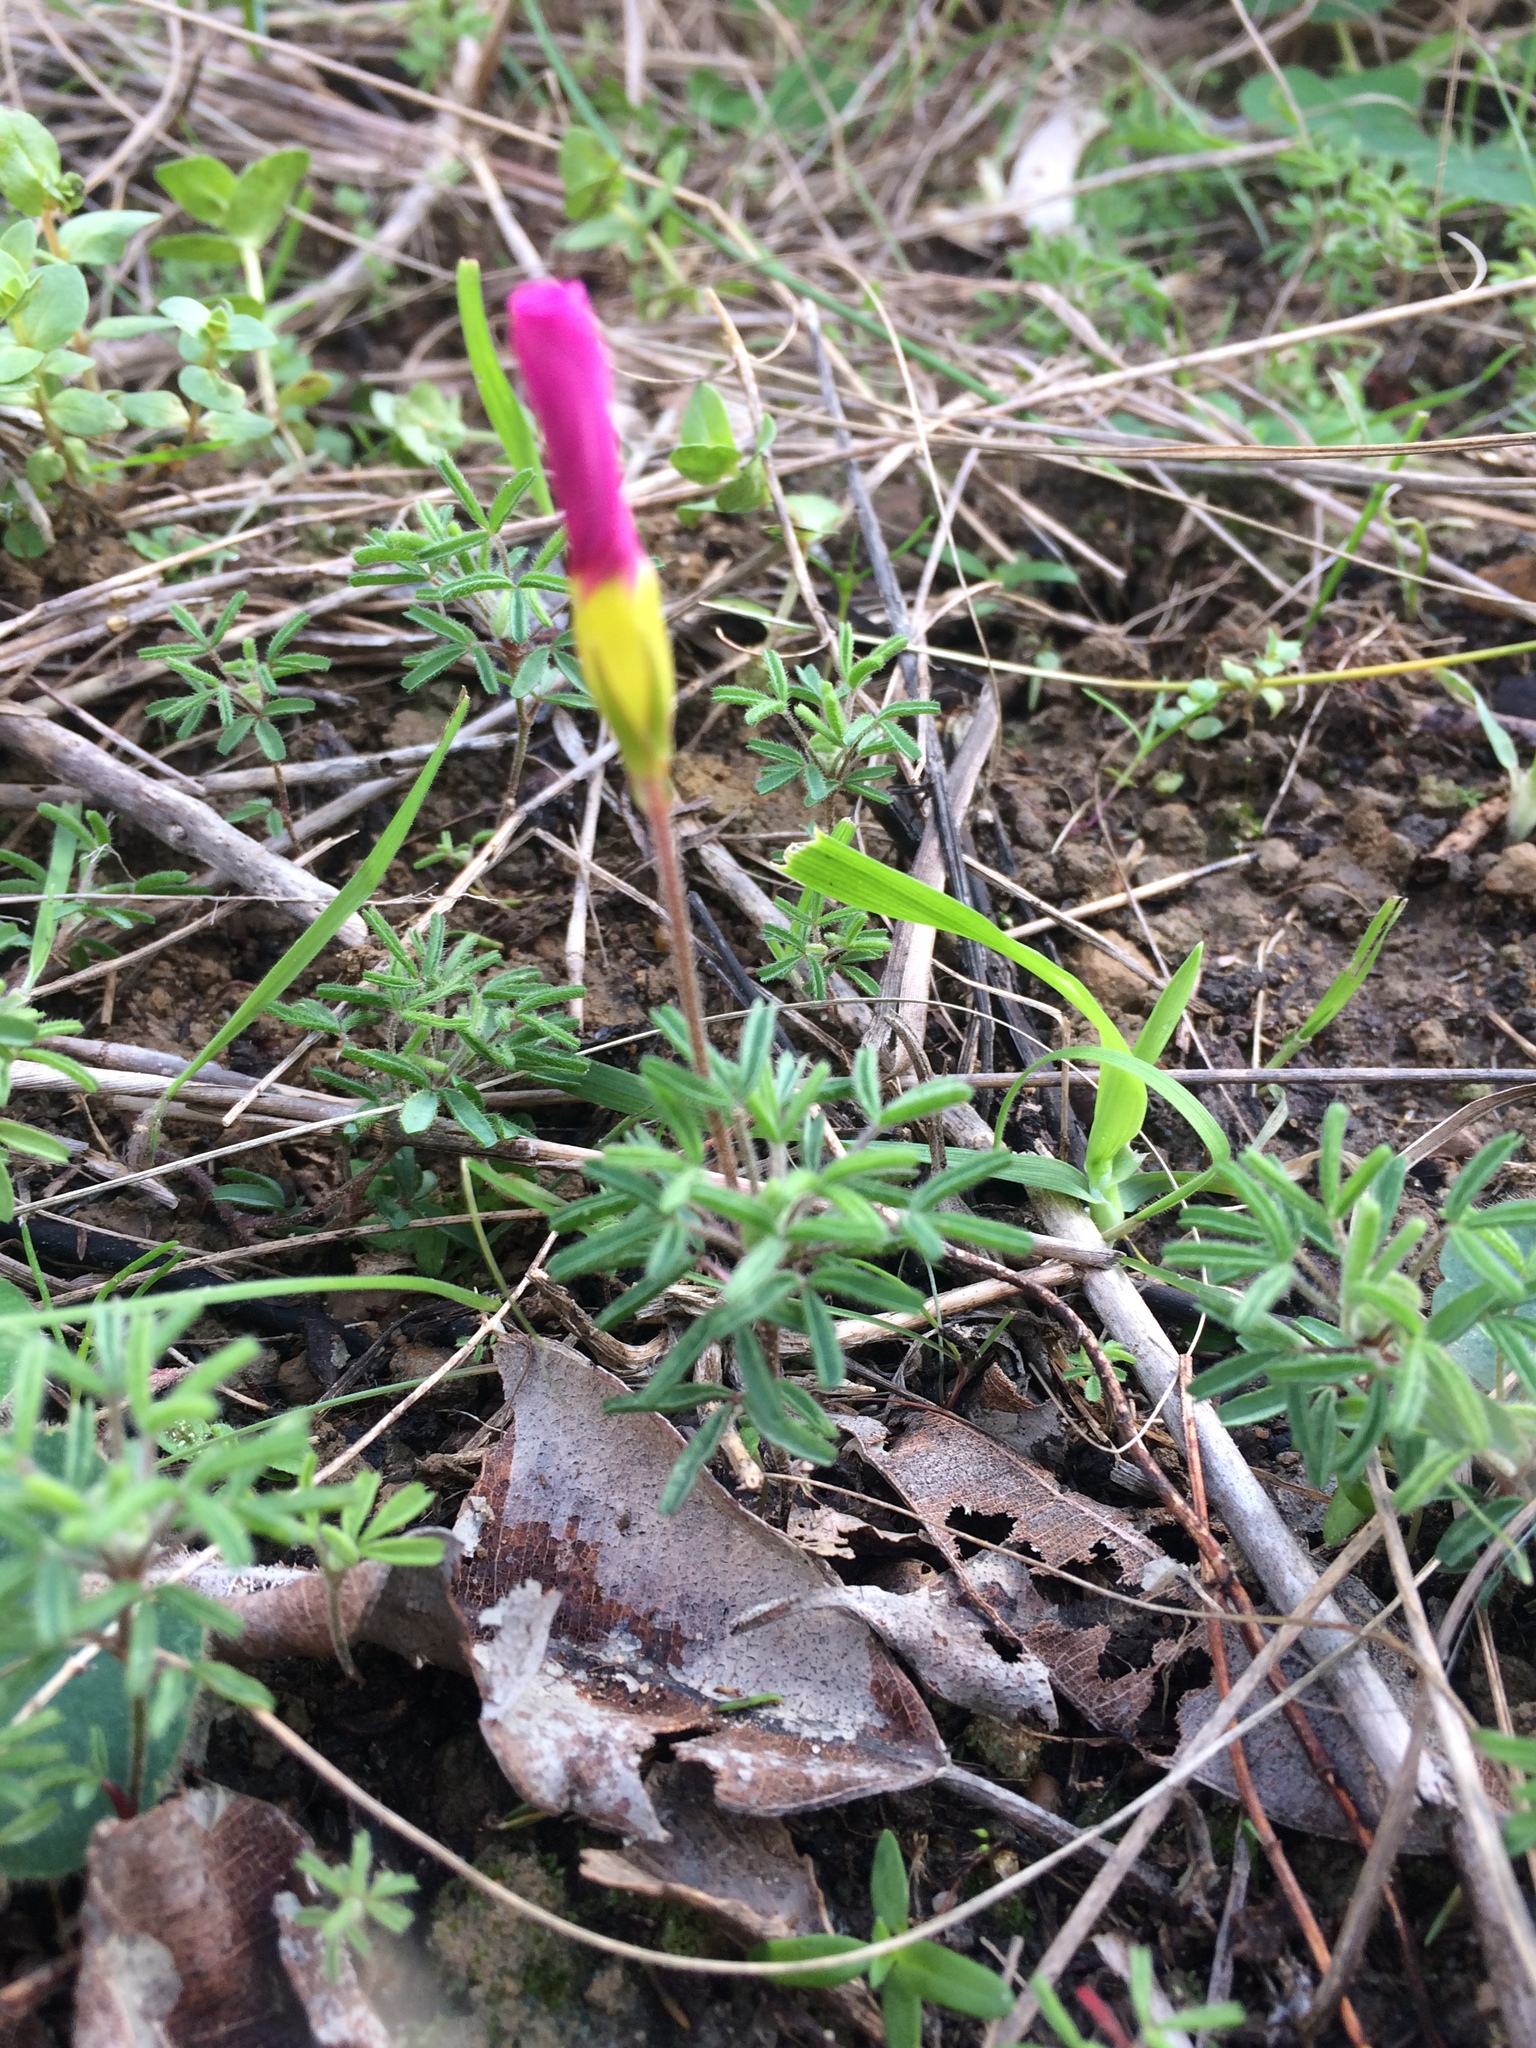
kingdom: Plantae
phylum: Tracheophyta
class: Magnoliopsida
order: Oxalidales
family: Oxalidaceae
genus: Oxalis
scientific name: Oxalis glabra
